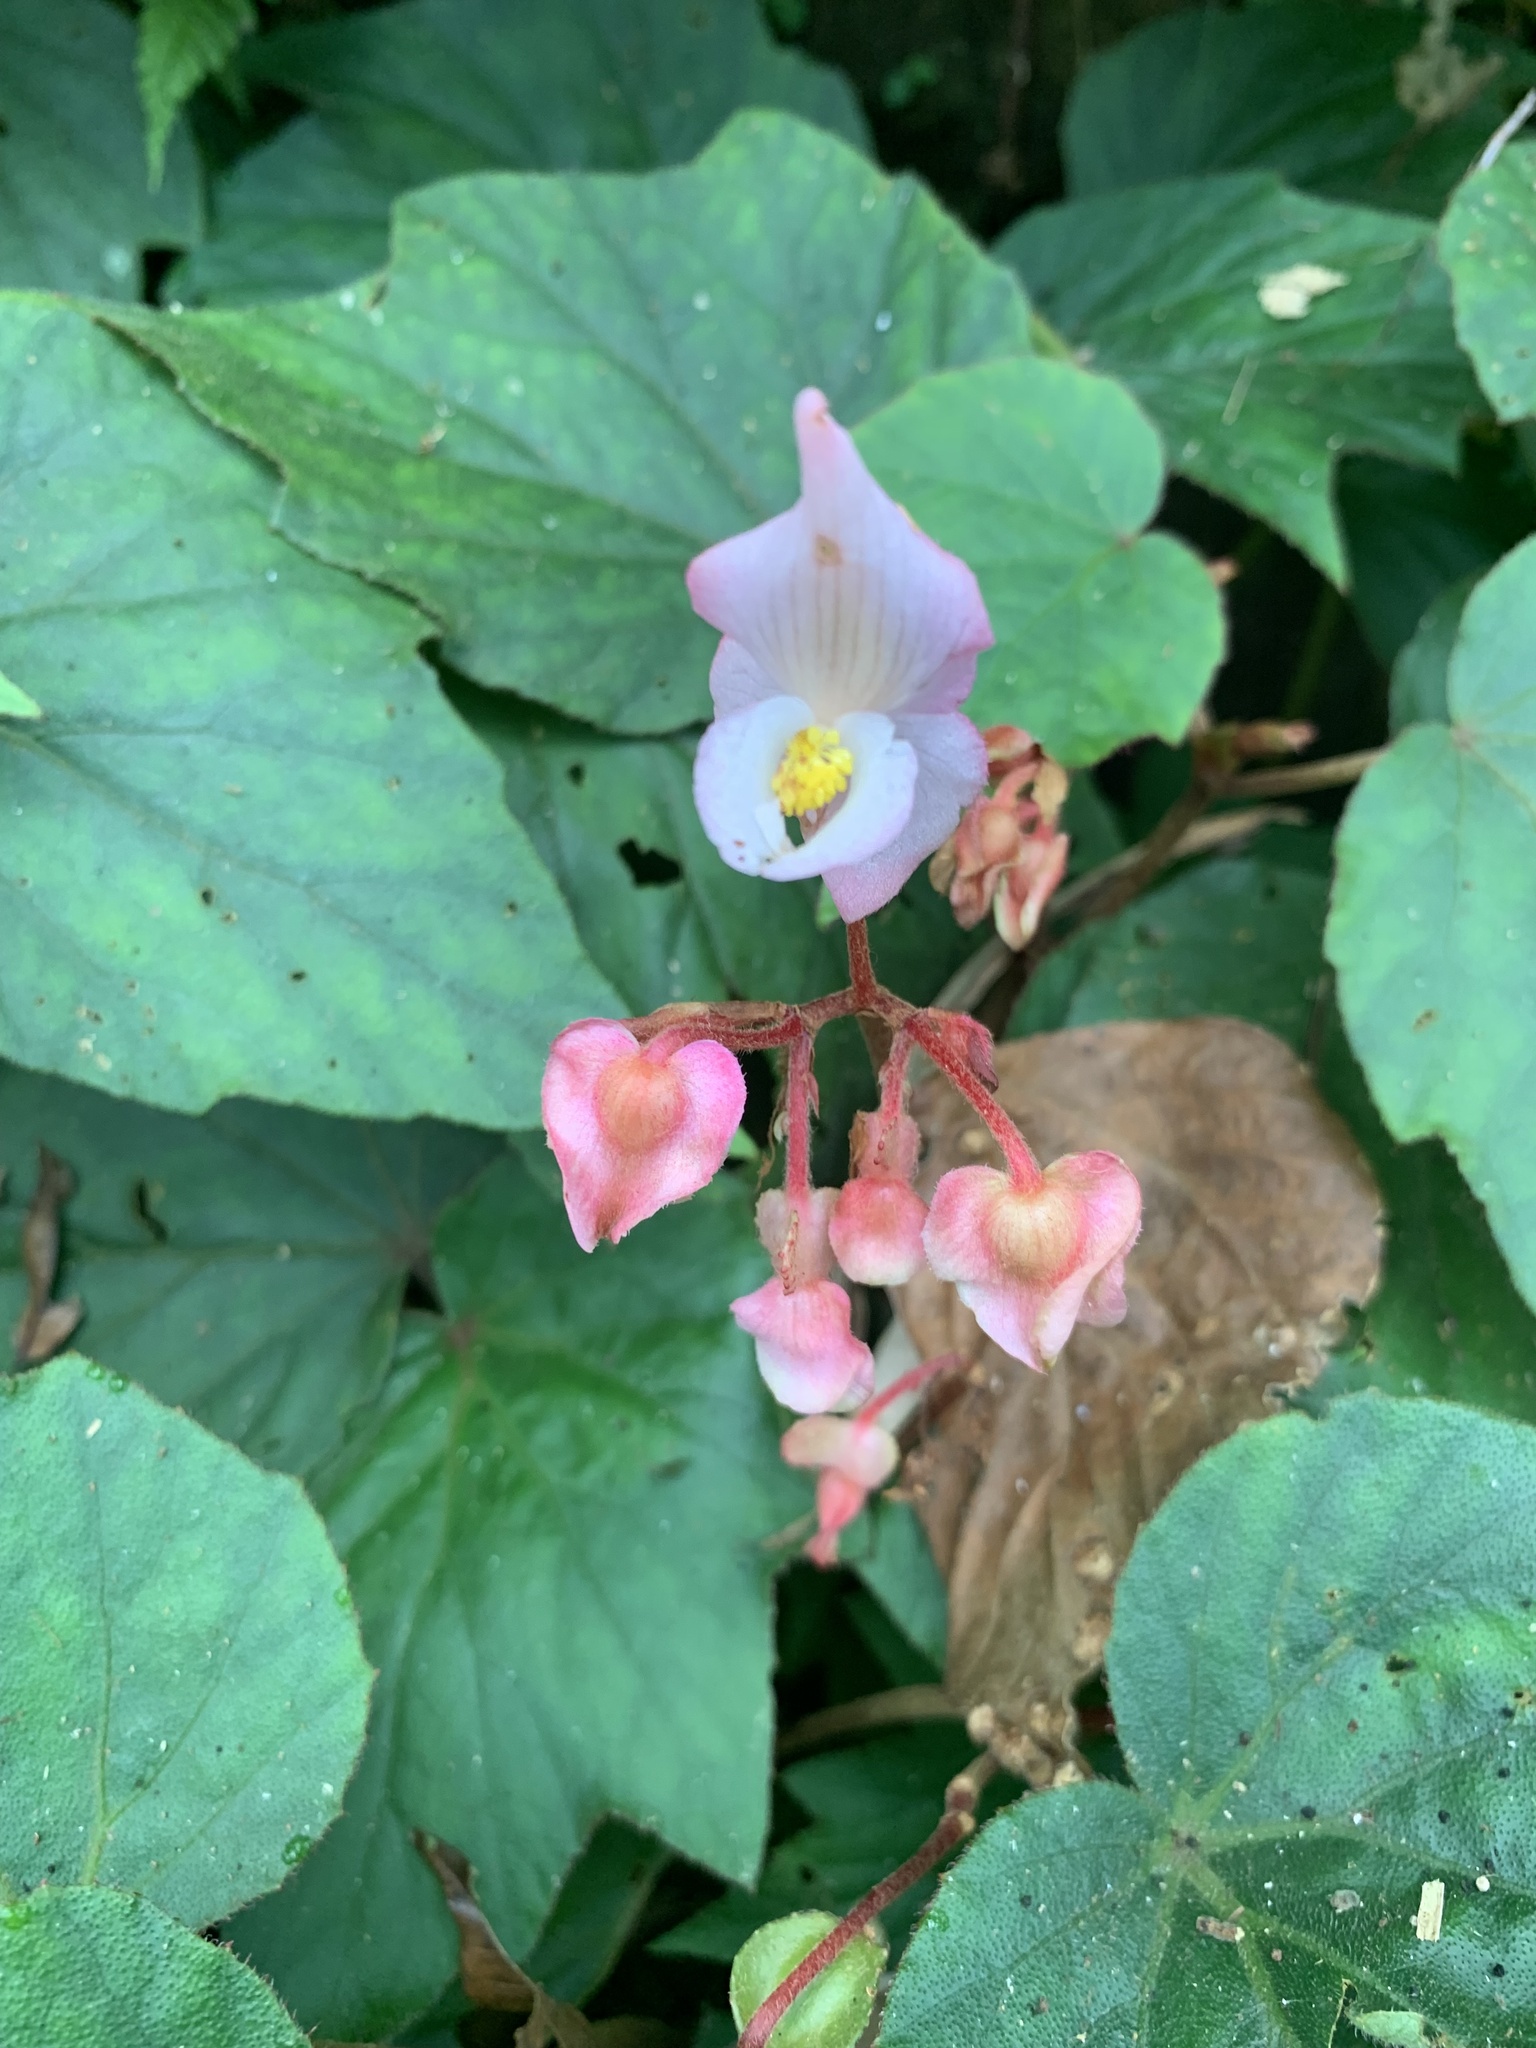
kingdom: Plantae
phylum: Tracheophyta
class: Magnoliopsida
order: Cucurbitales
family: Begoniaceae
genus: Begonia
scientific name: Begonia palmata
